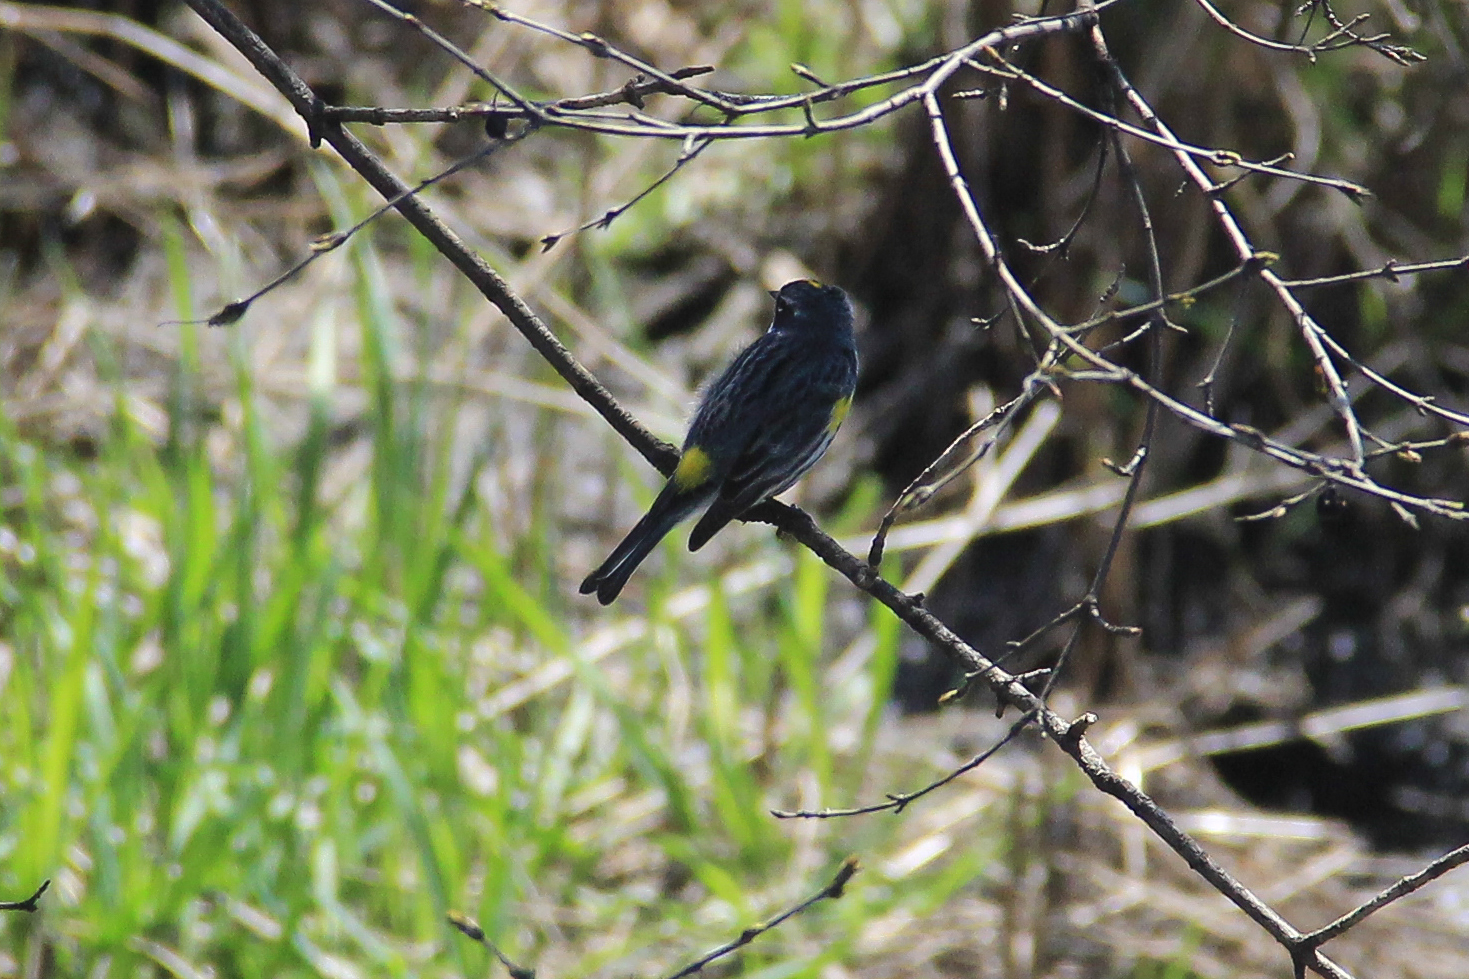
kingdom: Animalia
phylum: Chordata
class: Aves
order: Passeriformes
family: Parulidae
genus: Setophaga
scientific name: Setophaga coronata
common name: Myrtle warbler
